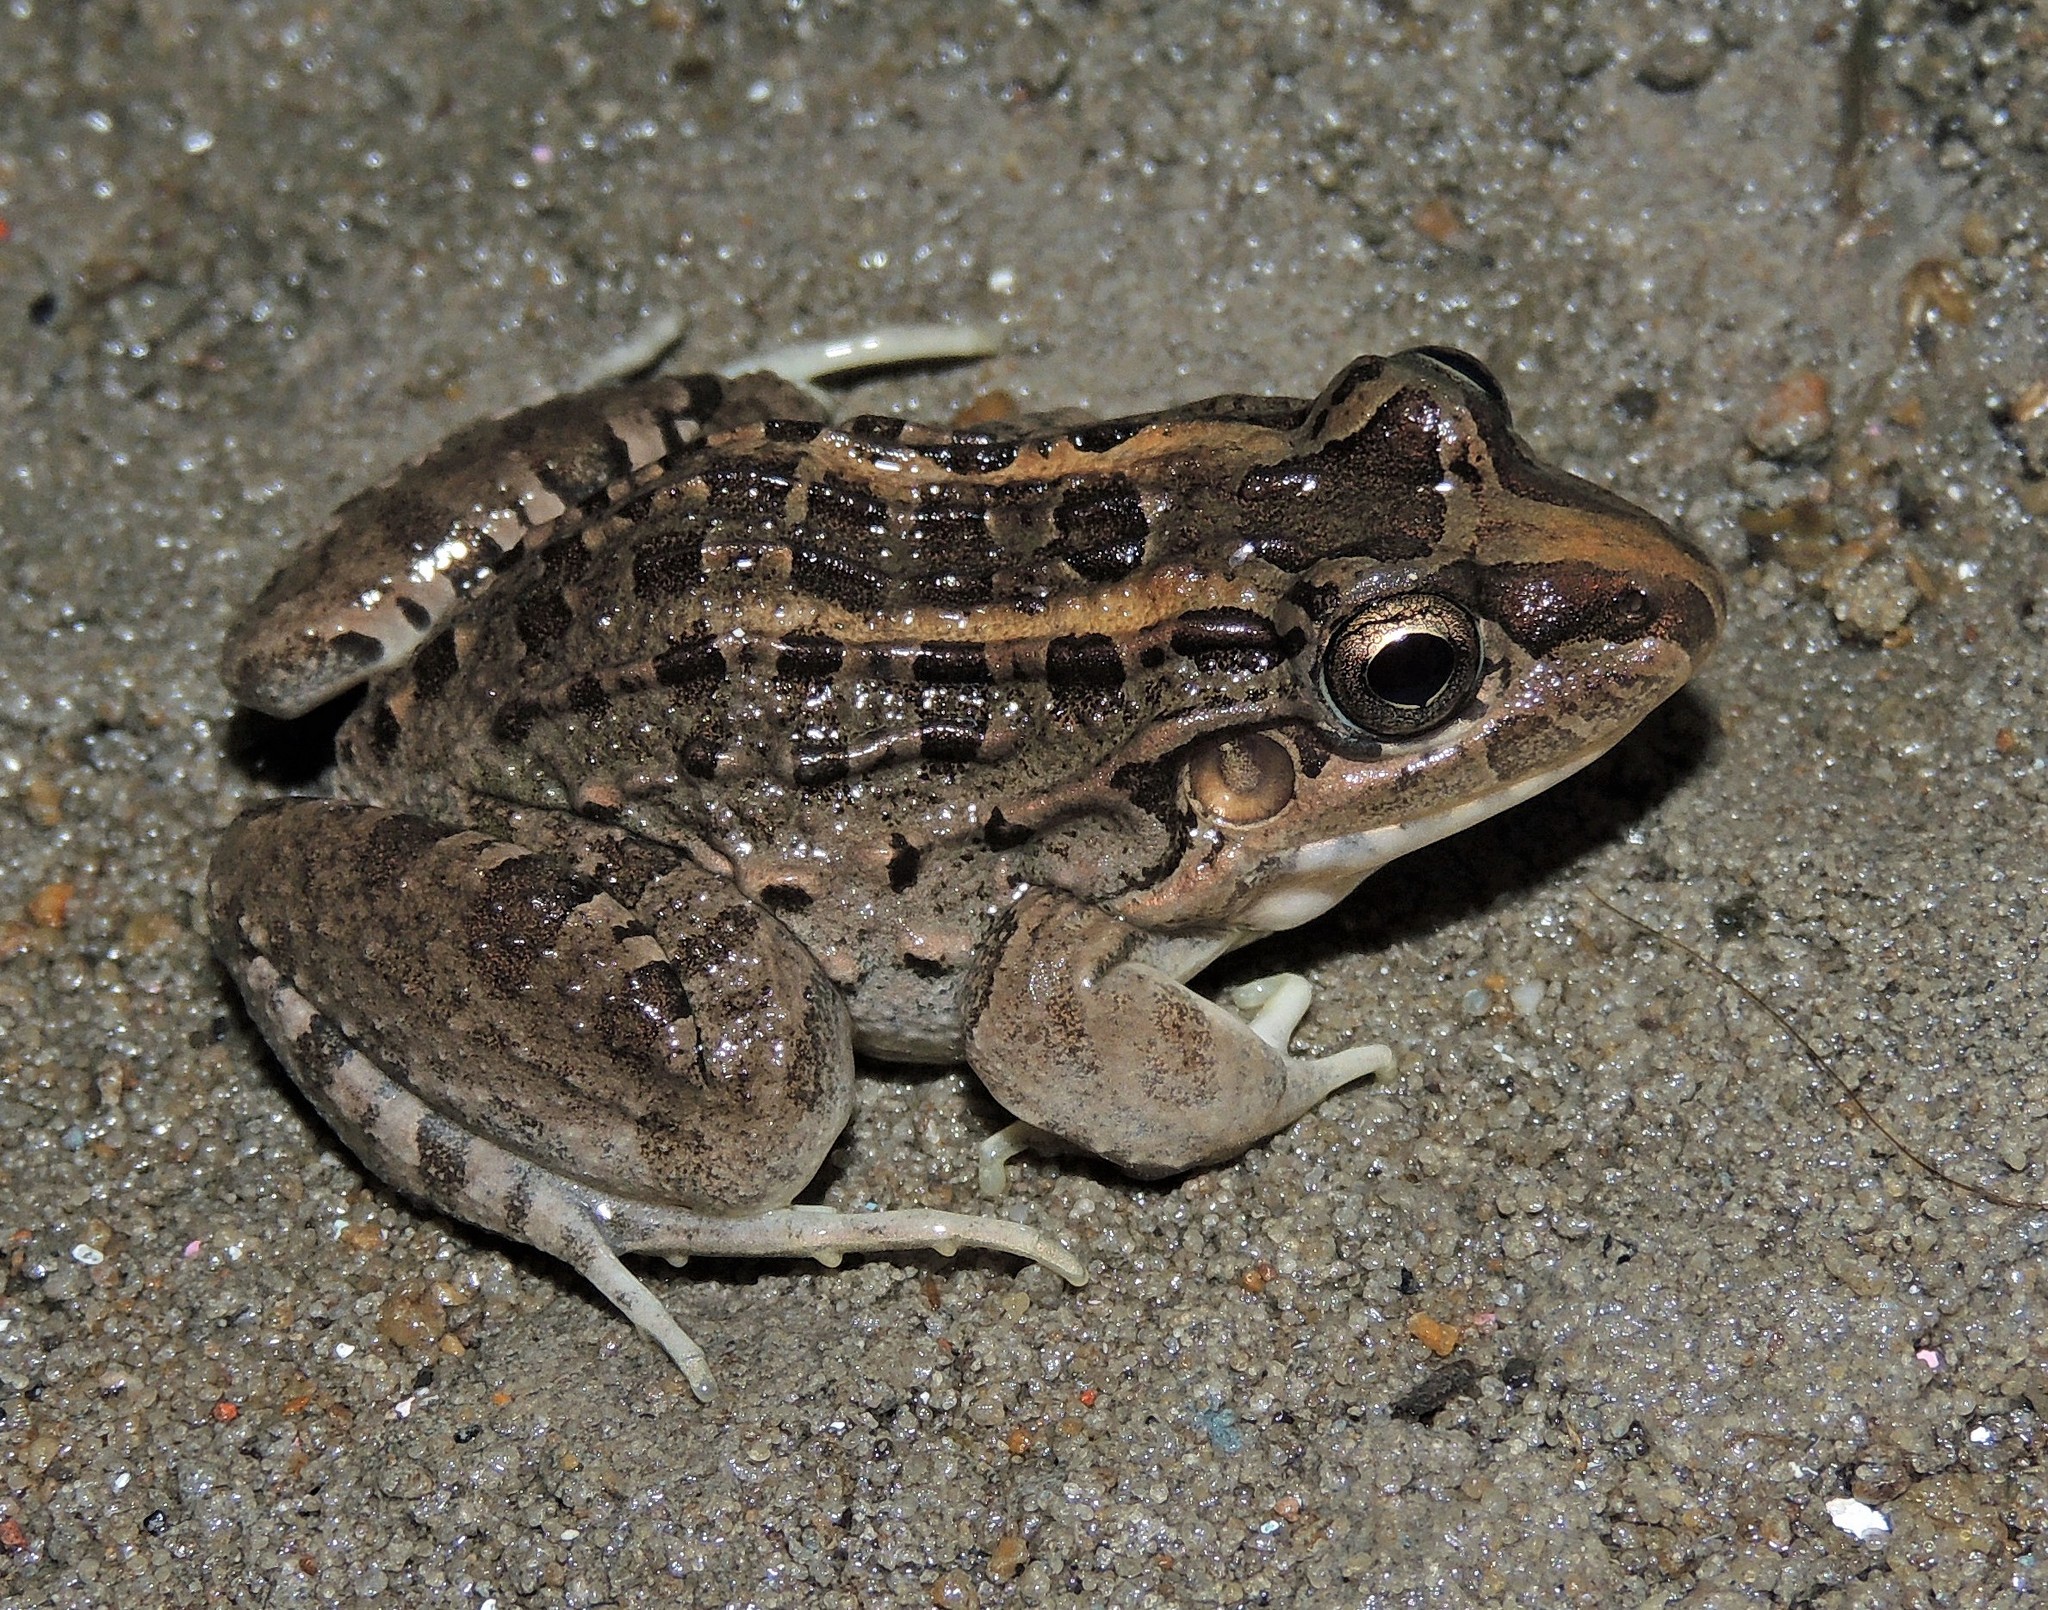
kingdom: Animalia
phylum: Chordata
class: Amphibia
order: Anura
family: Leptodactylidae
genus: Leptodactylus
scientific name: Leptodactylus macrosternum
